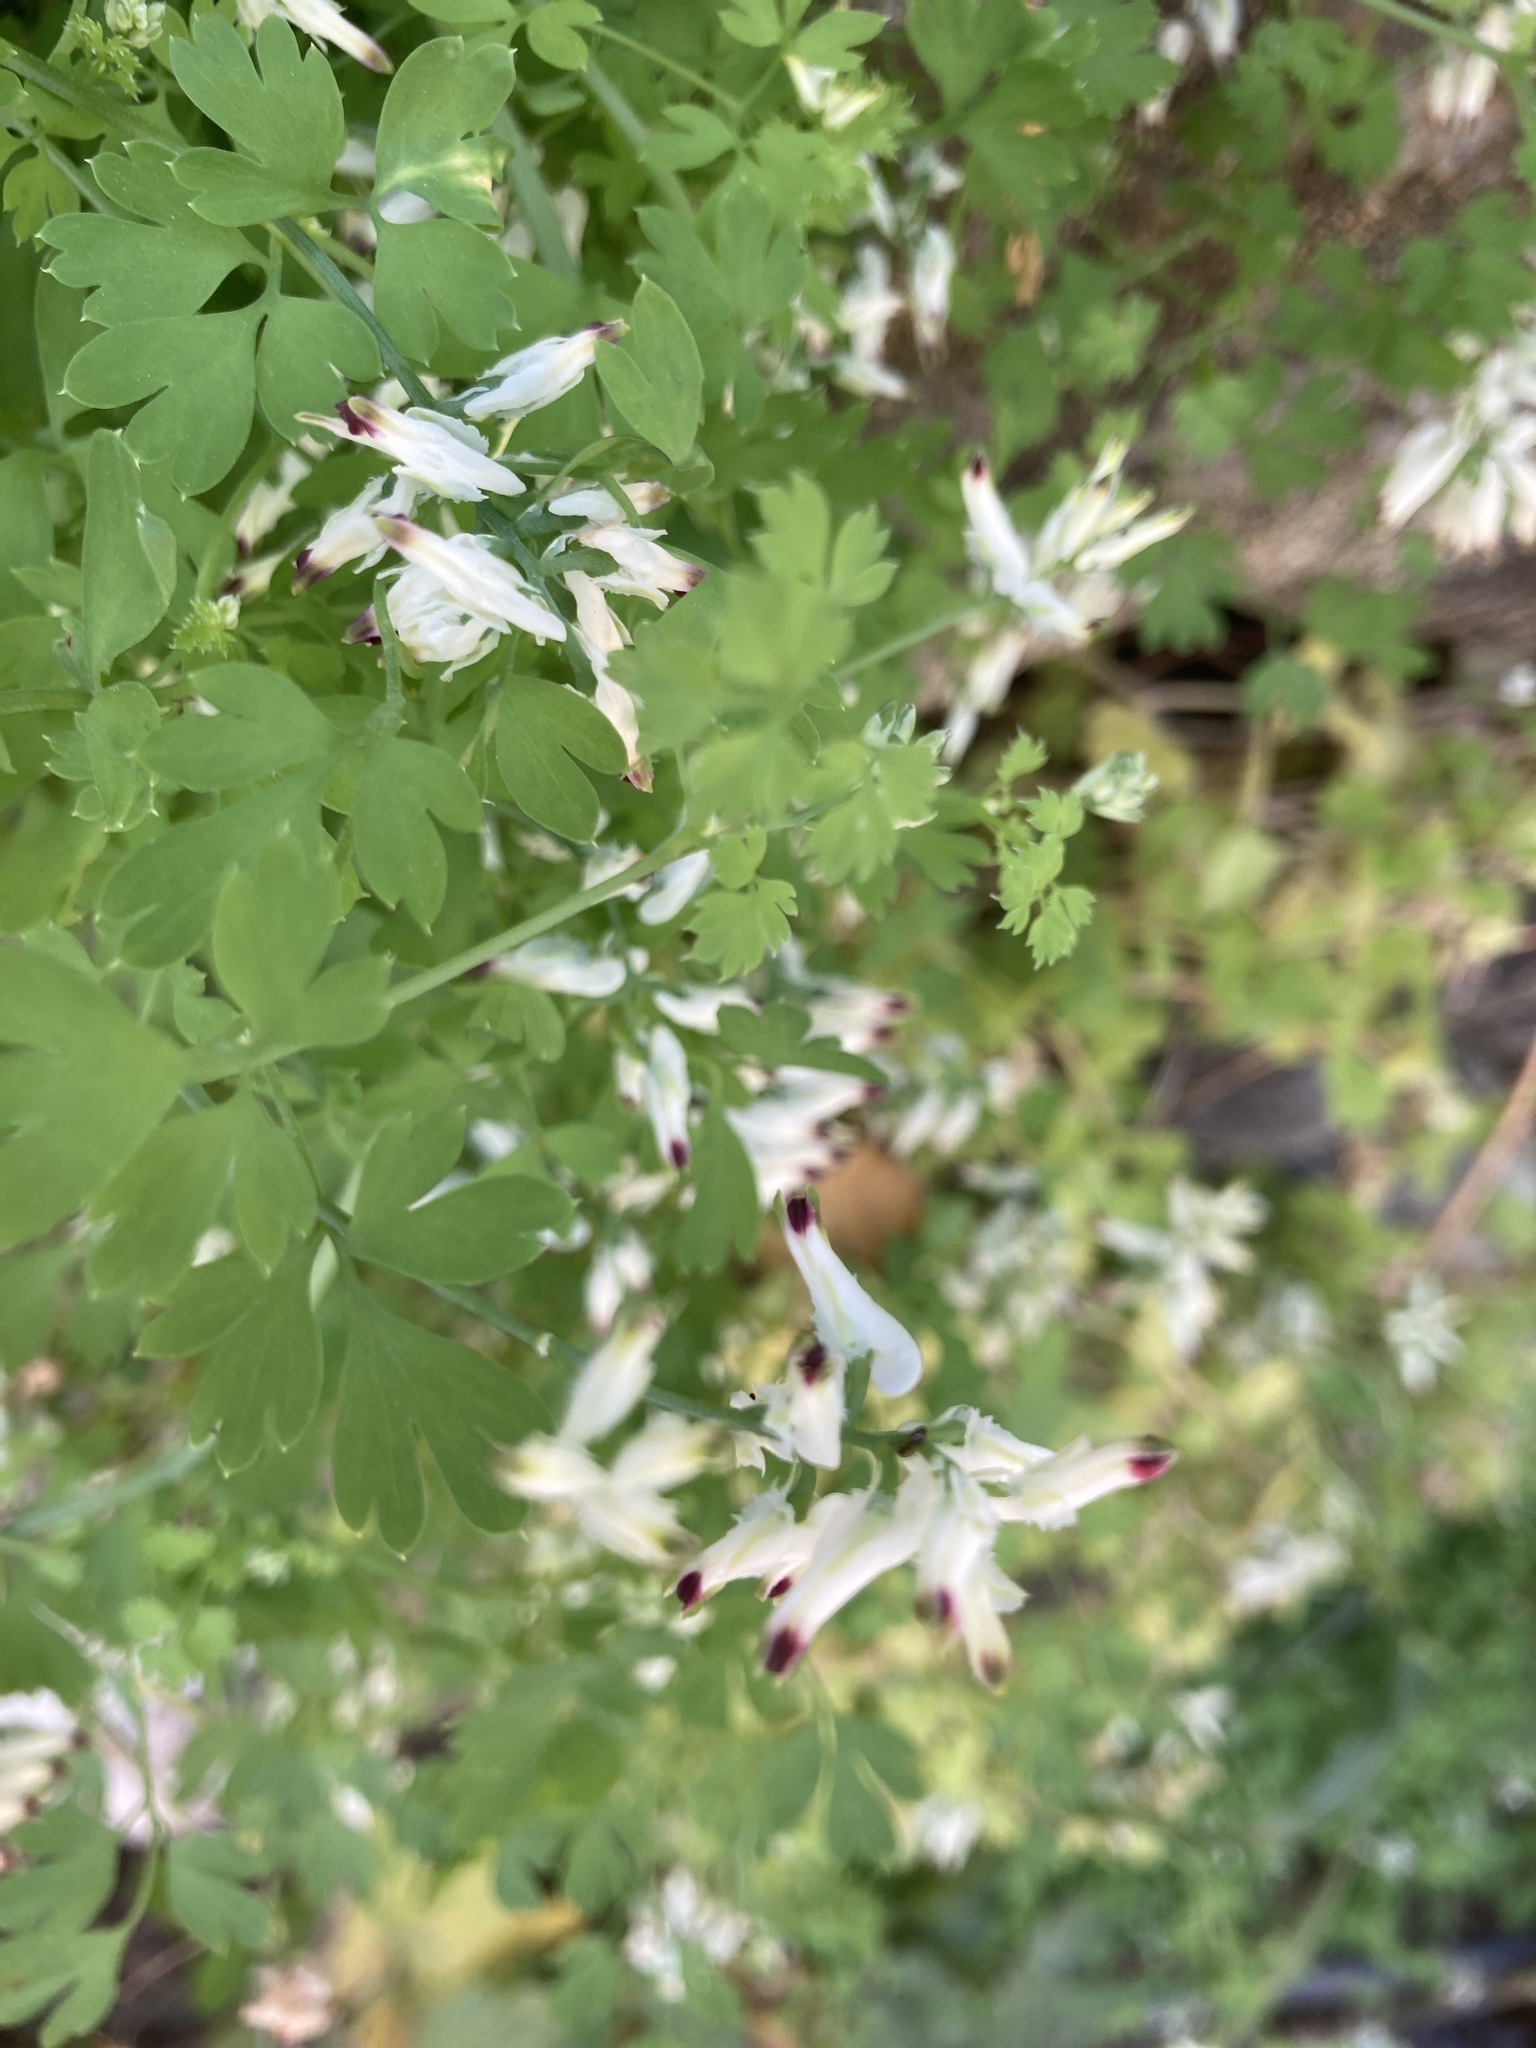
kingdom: Plantae
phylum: Tracheophyta
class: Magnoliopsida
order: Ranunculales
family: Papaveraceae
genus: Fumaria
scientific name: Fumaria capreolata
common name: White ramping-fumitory
